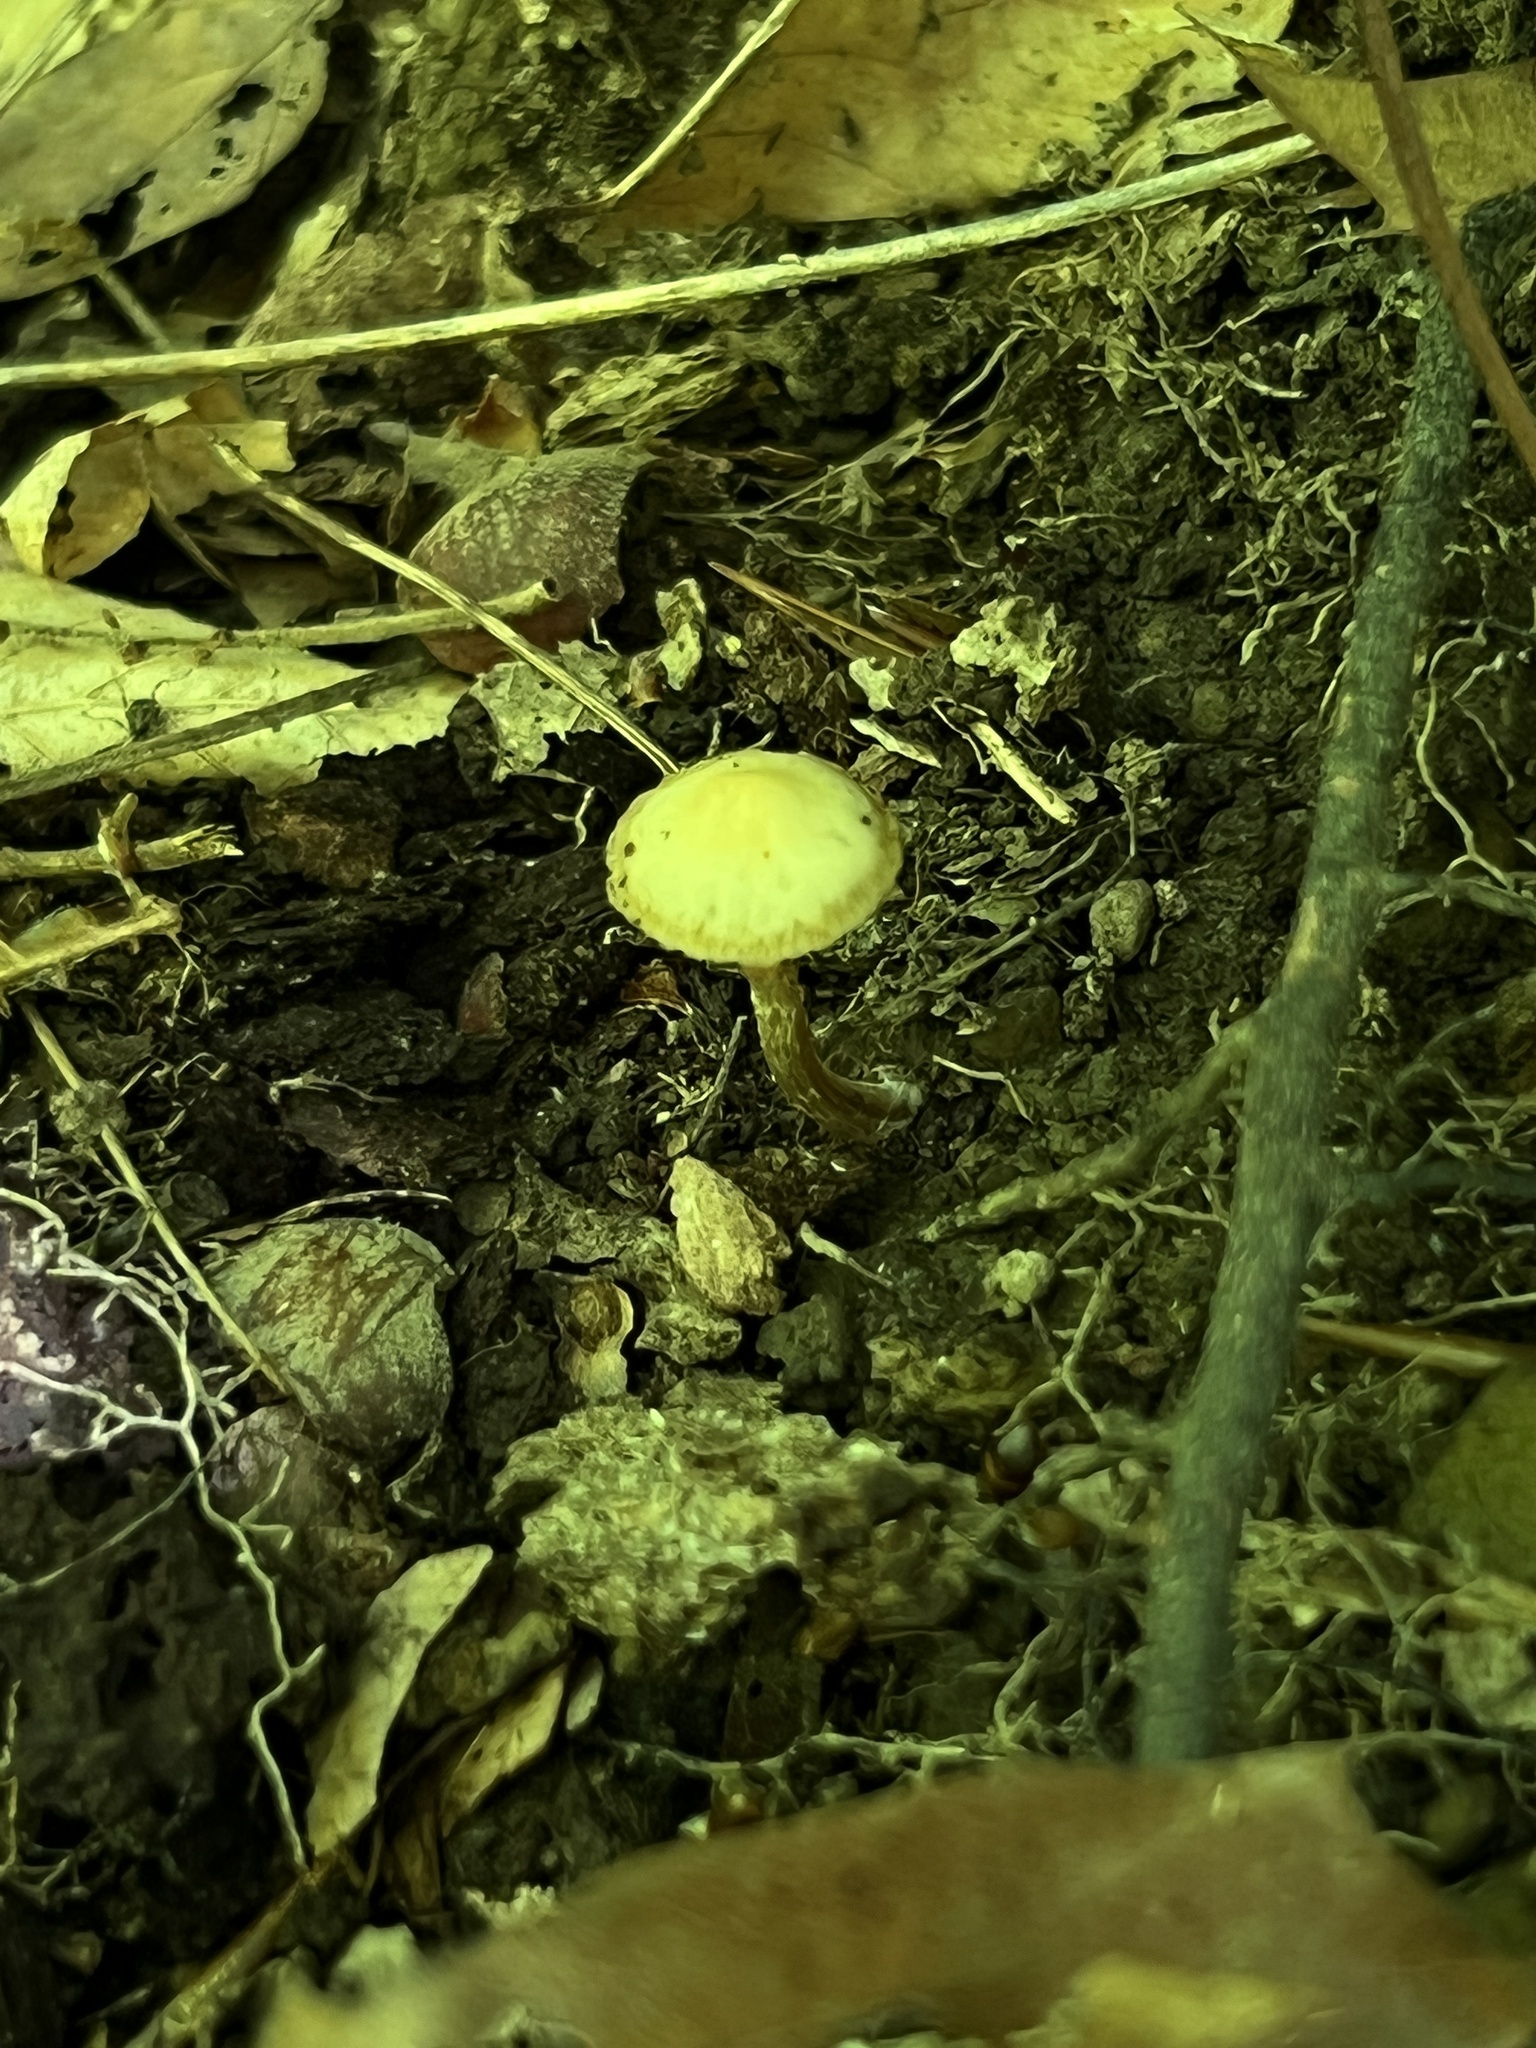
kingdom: Fungi
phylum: Basidiomycota
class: Agaricomycetes
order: Agaricales
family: Strophariaceae
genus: Kuehneromyces
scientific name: Kuehneromyces marginellus
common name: Sheathed woodtuft
